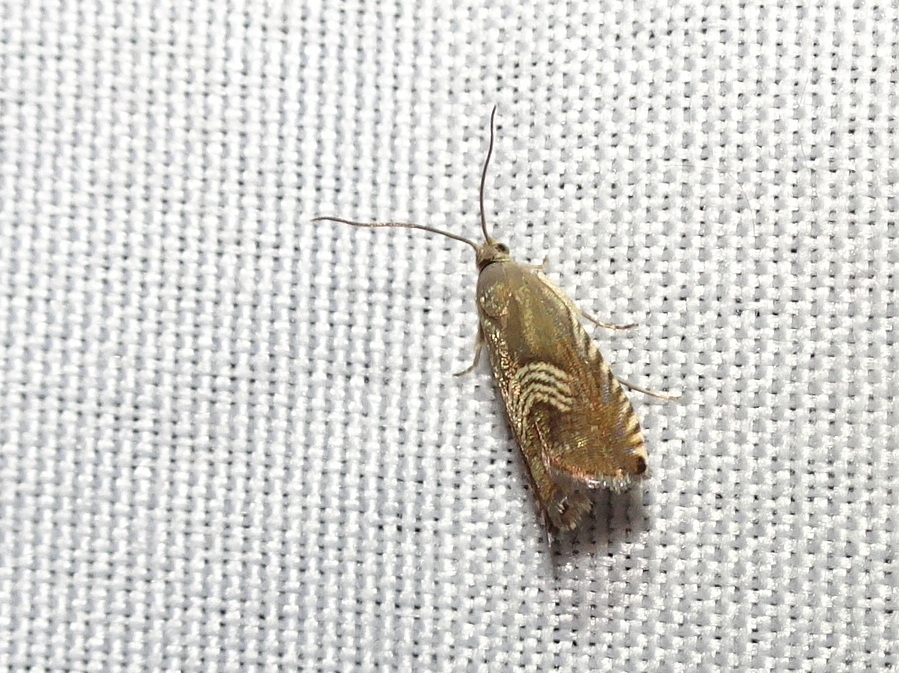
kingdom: Animalia
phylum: Arthropoda
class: Insecta
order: Lepidoptera
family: Tortricidae
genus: Grapholita
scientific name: Grapholita tristrigana
